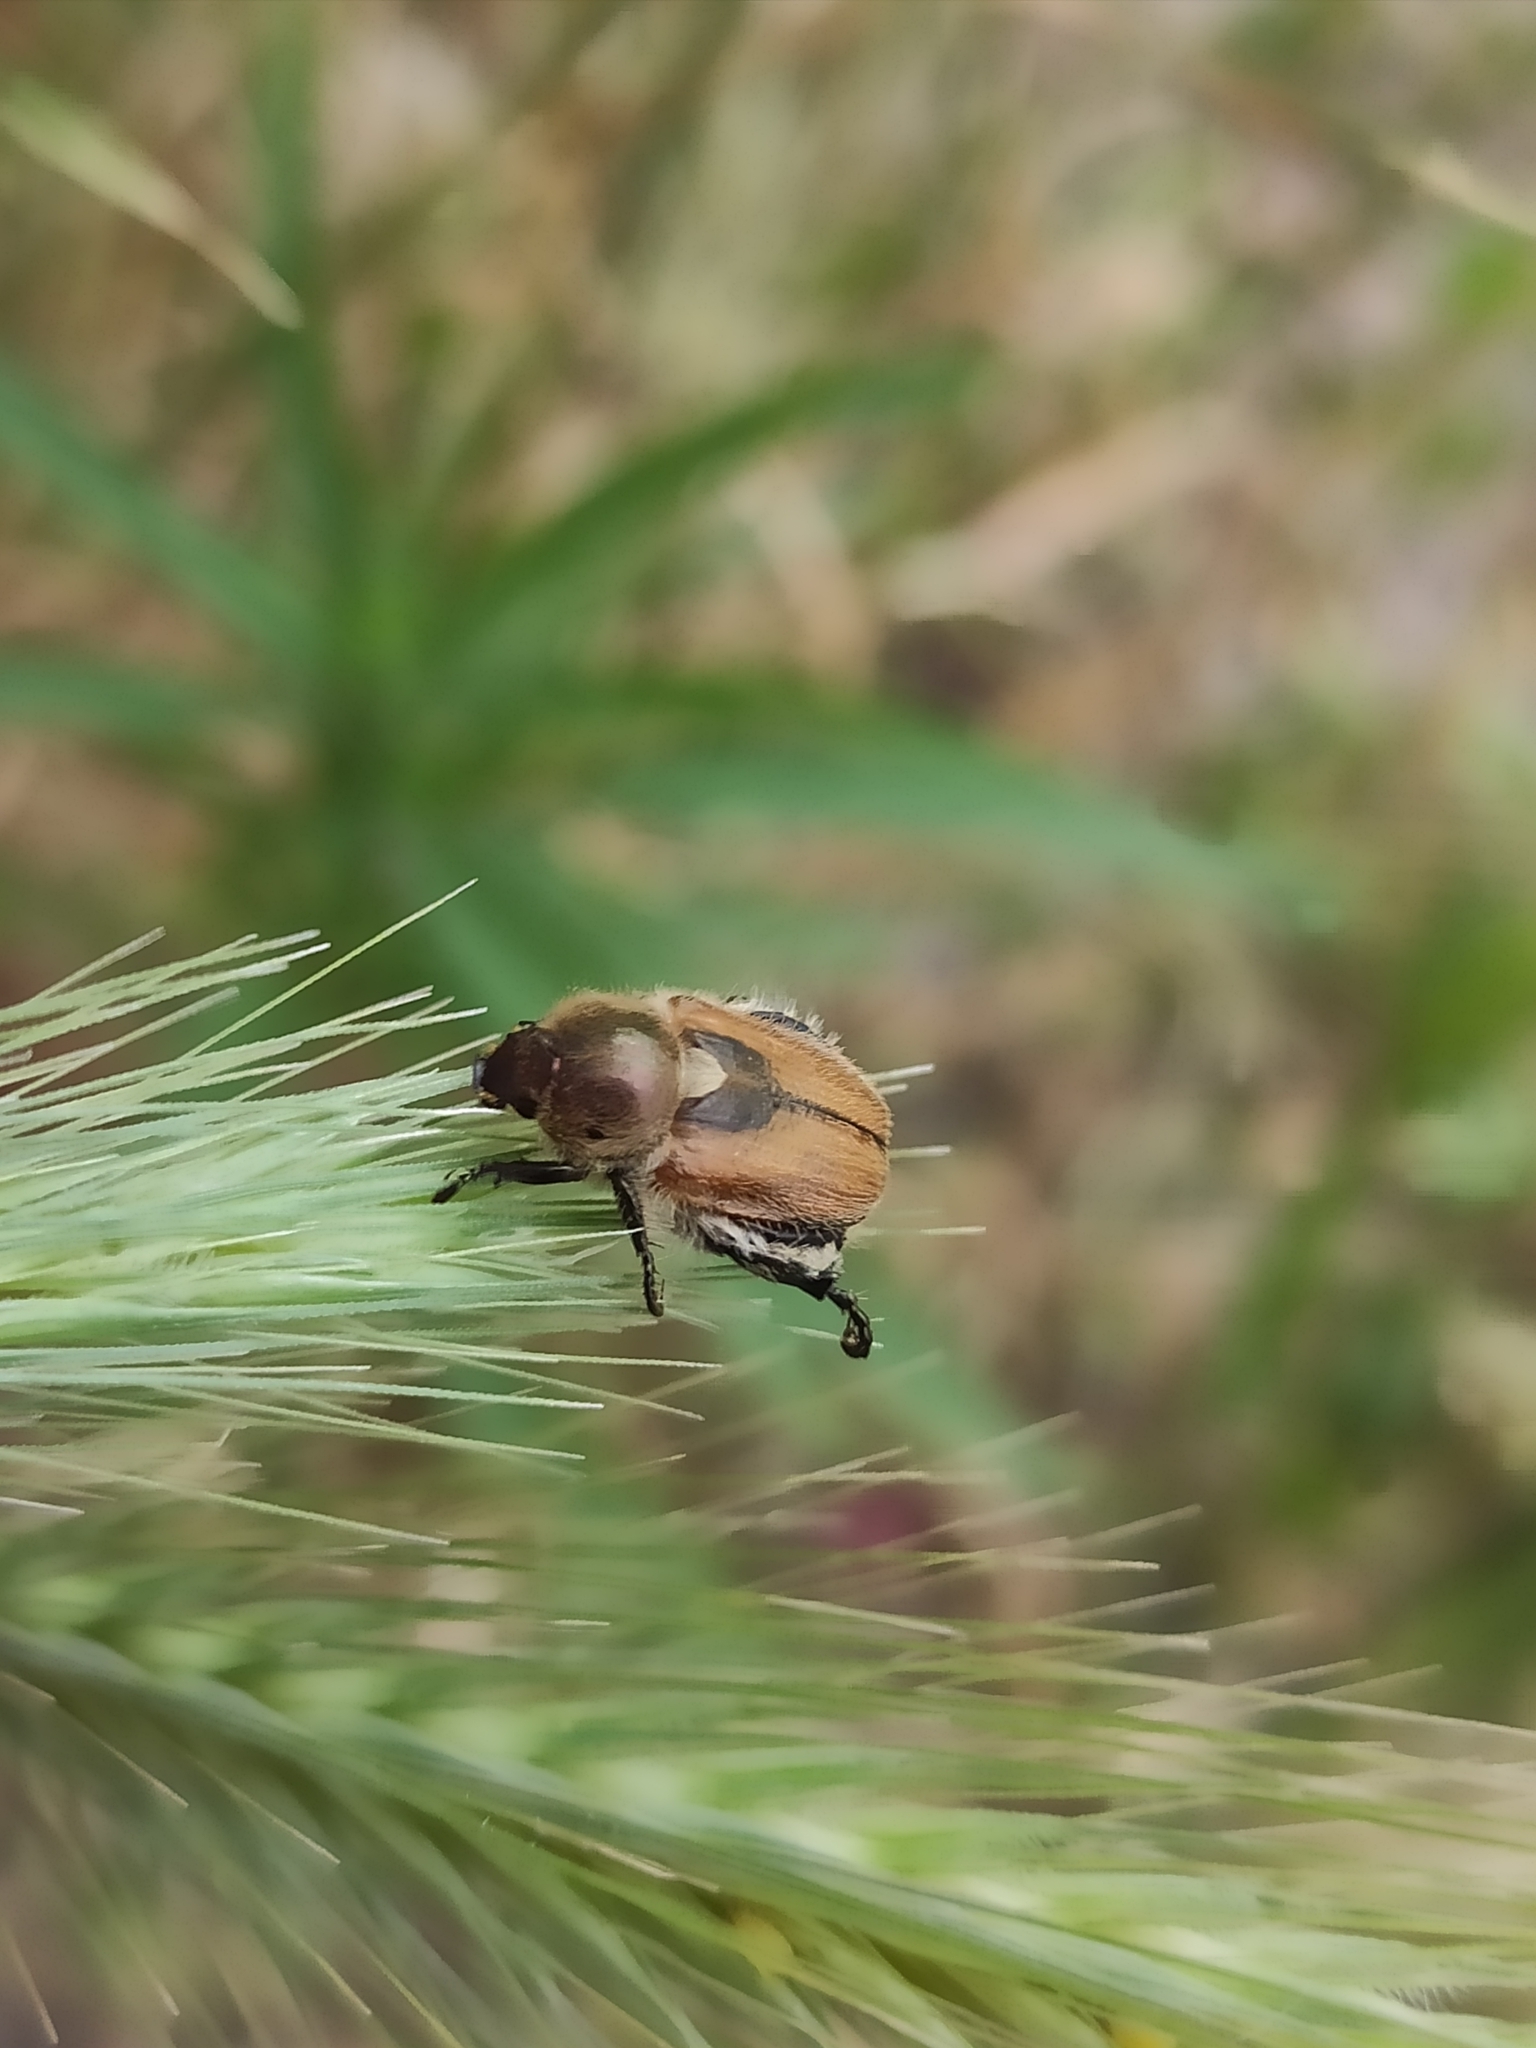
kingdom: Animalia
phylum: Arthropoda
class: Insecta
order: Coleoptera
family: Scarabaeidae
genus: Chaetopteroplia
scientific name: Chaetopteroplia segetum
